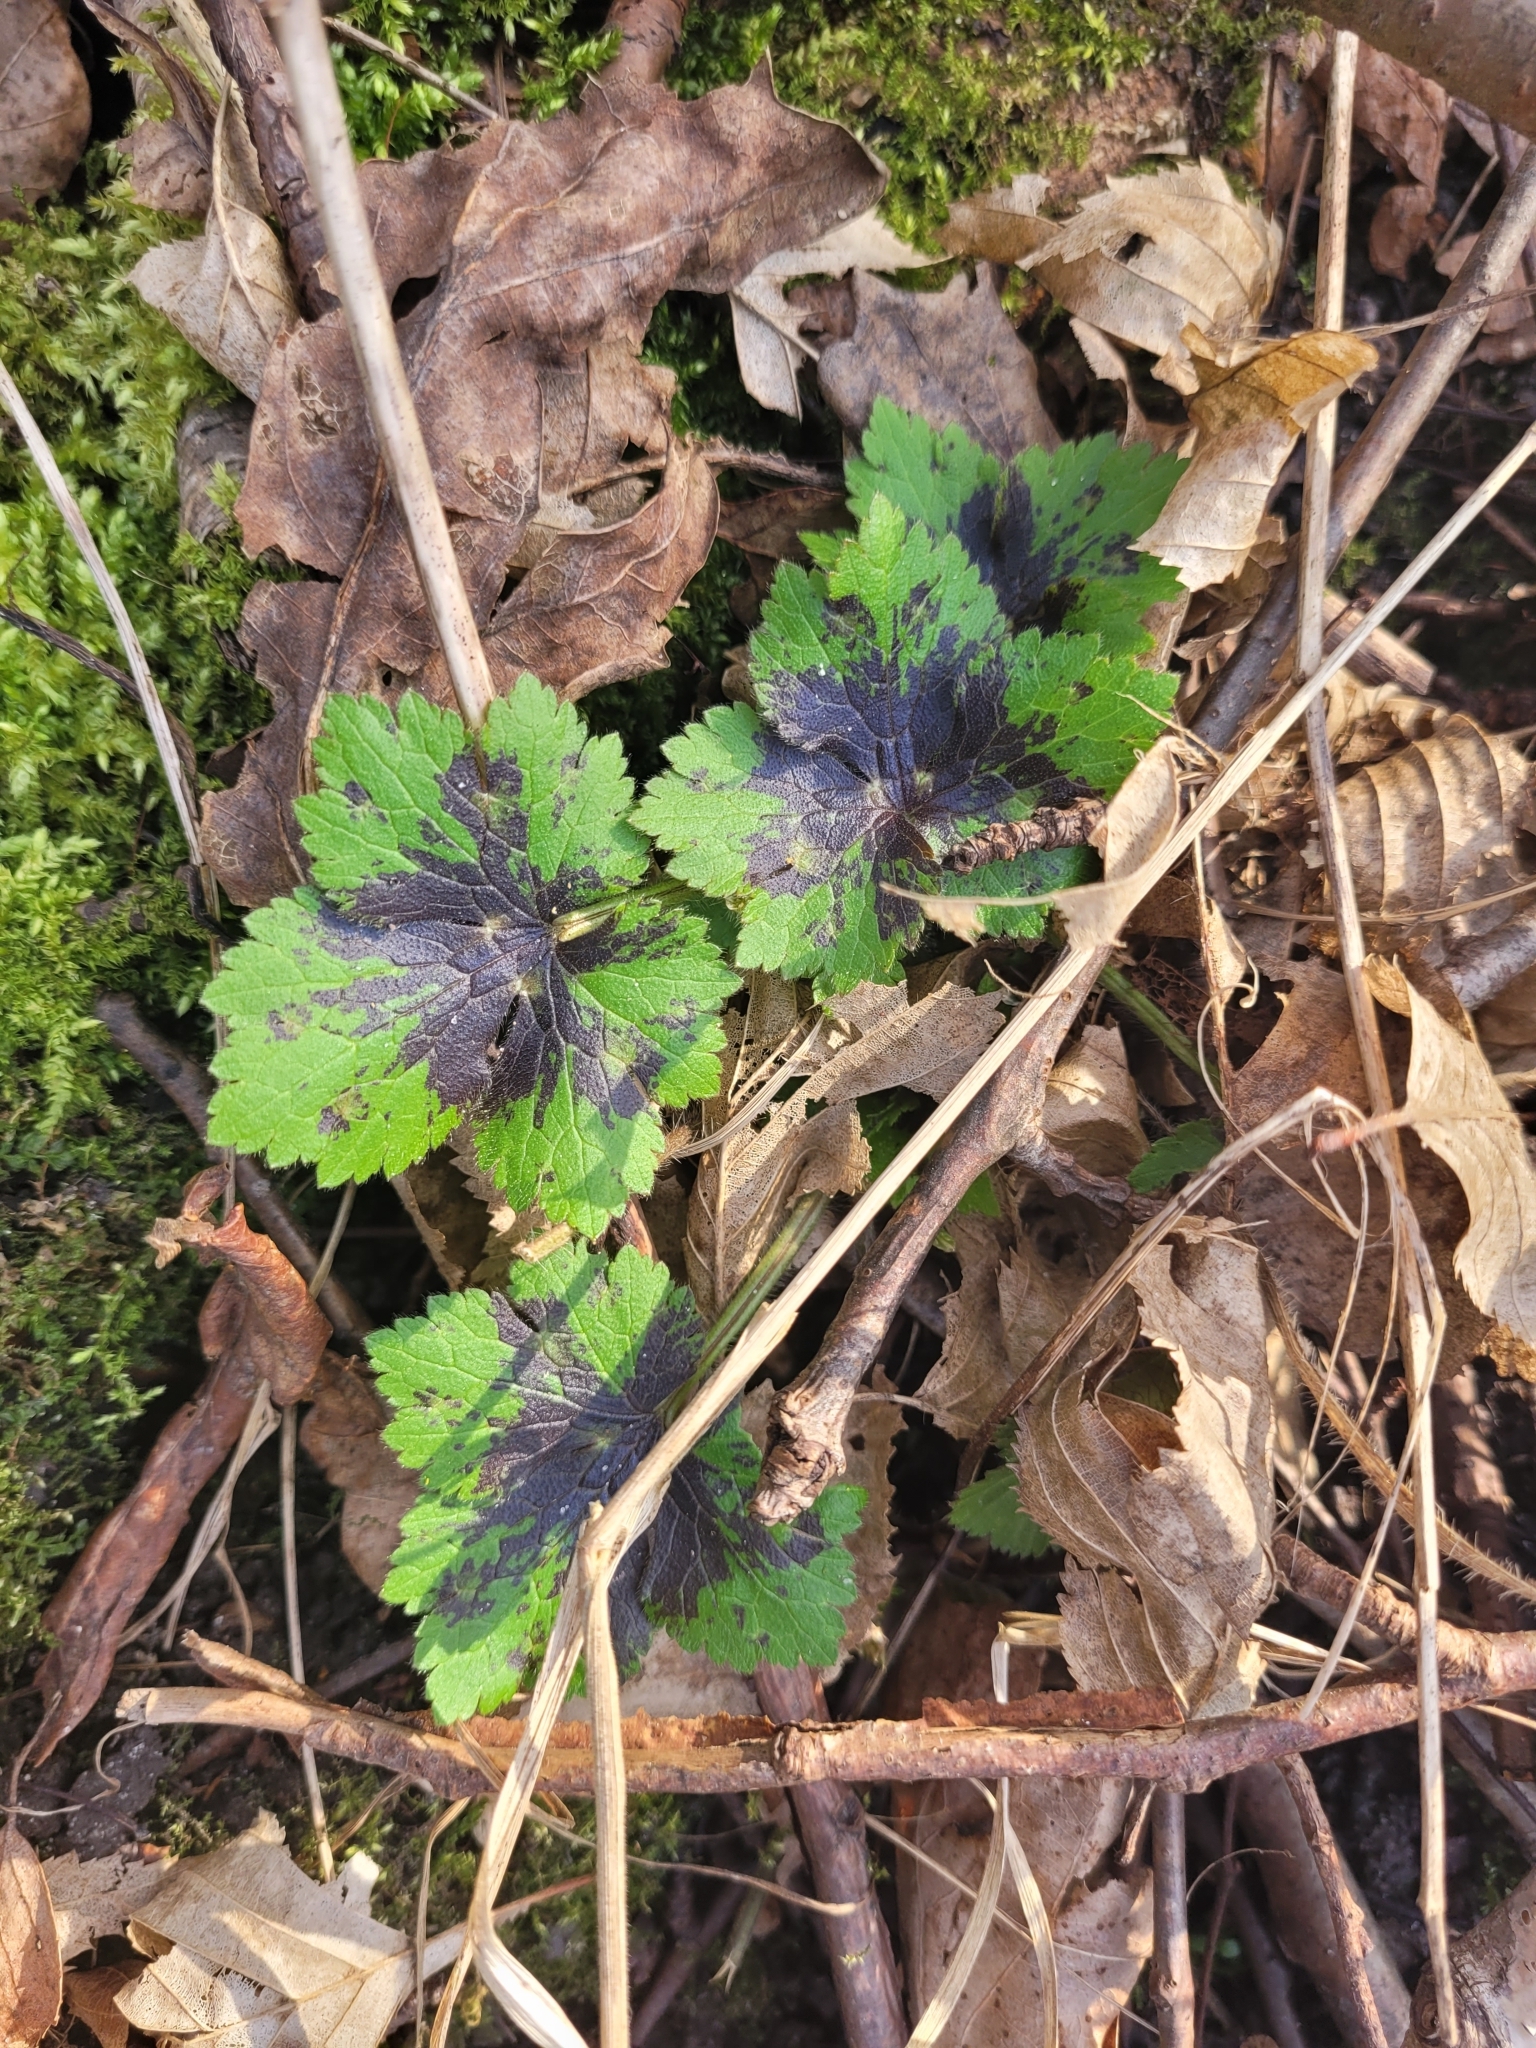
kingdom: Plantae
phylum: Tracheophyta
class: Magnoliopsida
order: Ranunculales
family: Ranunculaceae
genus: Ranunculus
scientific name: Ranunculus lanuginosus
